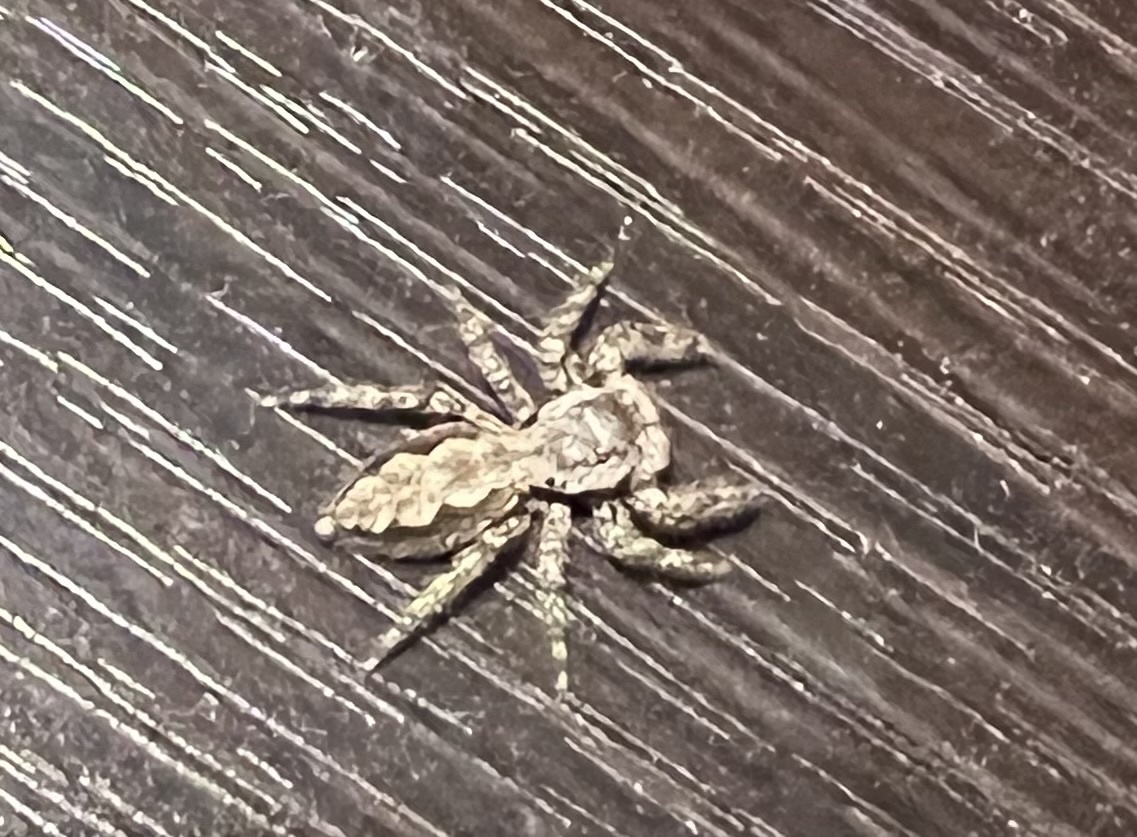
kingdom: Animalia
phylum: Arthropoda
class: Arachnida
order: Araneae
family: Salticidae
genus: Platycryptus
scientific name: Platycryptus undatus
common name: Tan jumping spider
